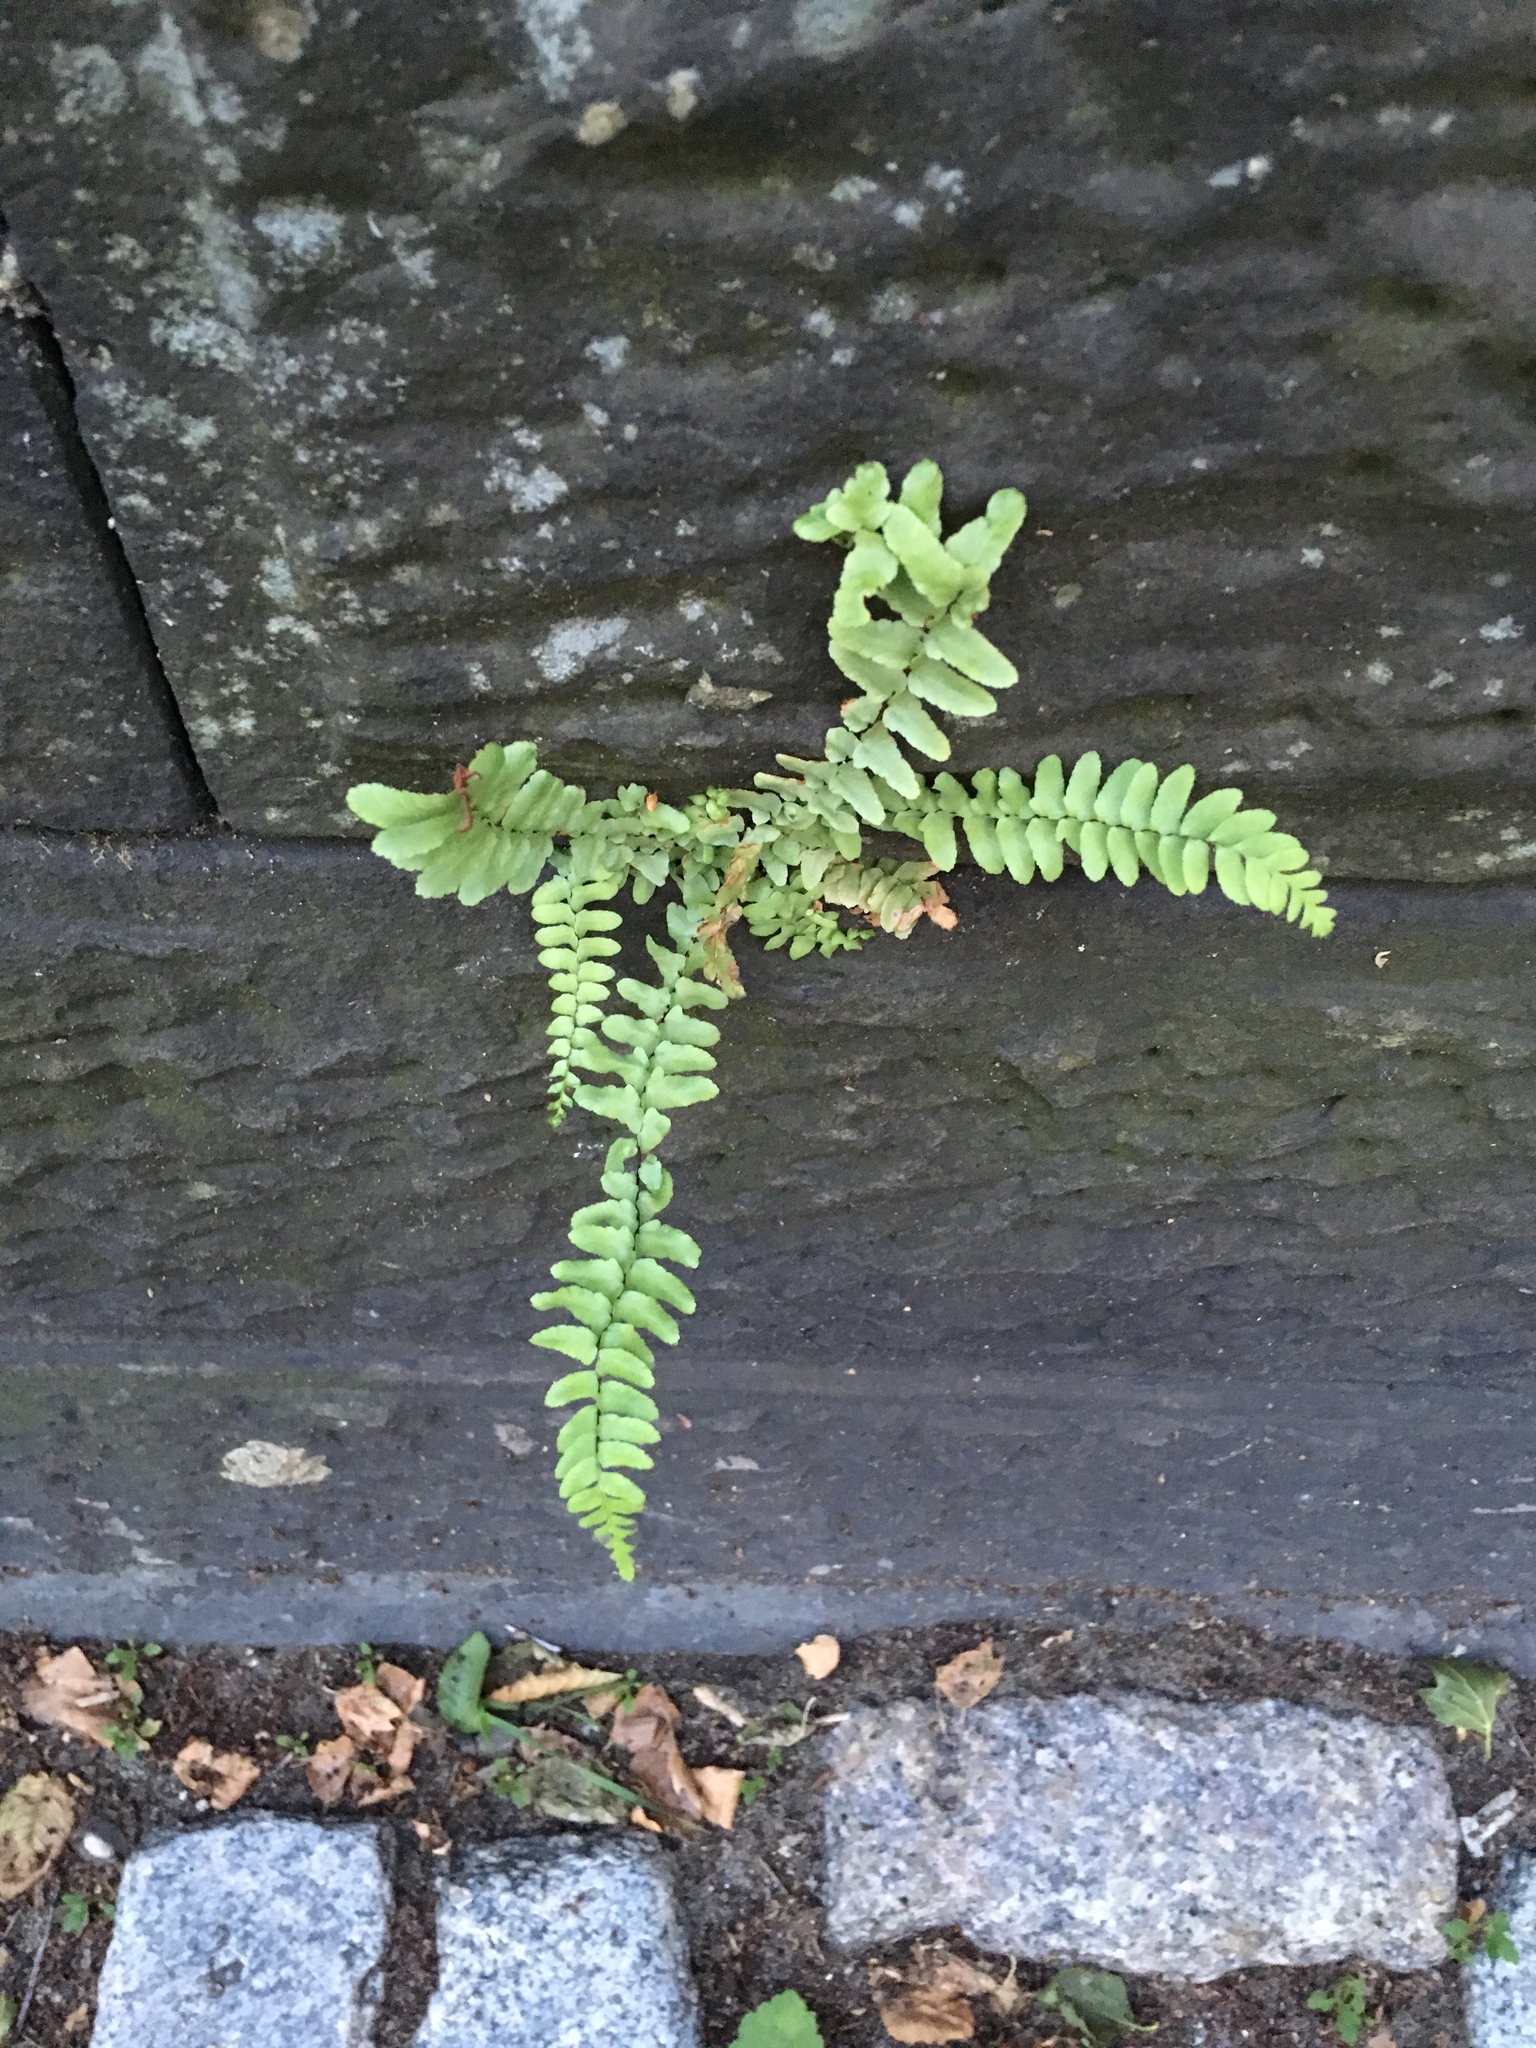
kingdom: Plantae
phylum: Tracheophyta
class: Polypodiopsida
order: Polypodiales
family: Aspleniaceae
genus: Asplenium
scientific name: Asplenium platyneuron
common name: Ebony spleenwort
